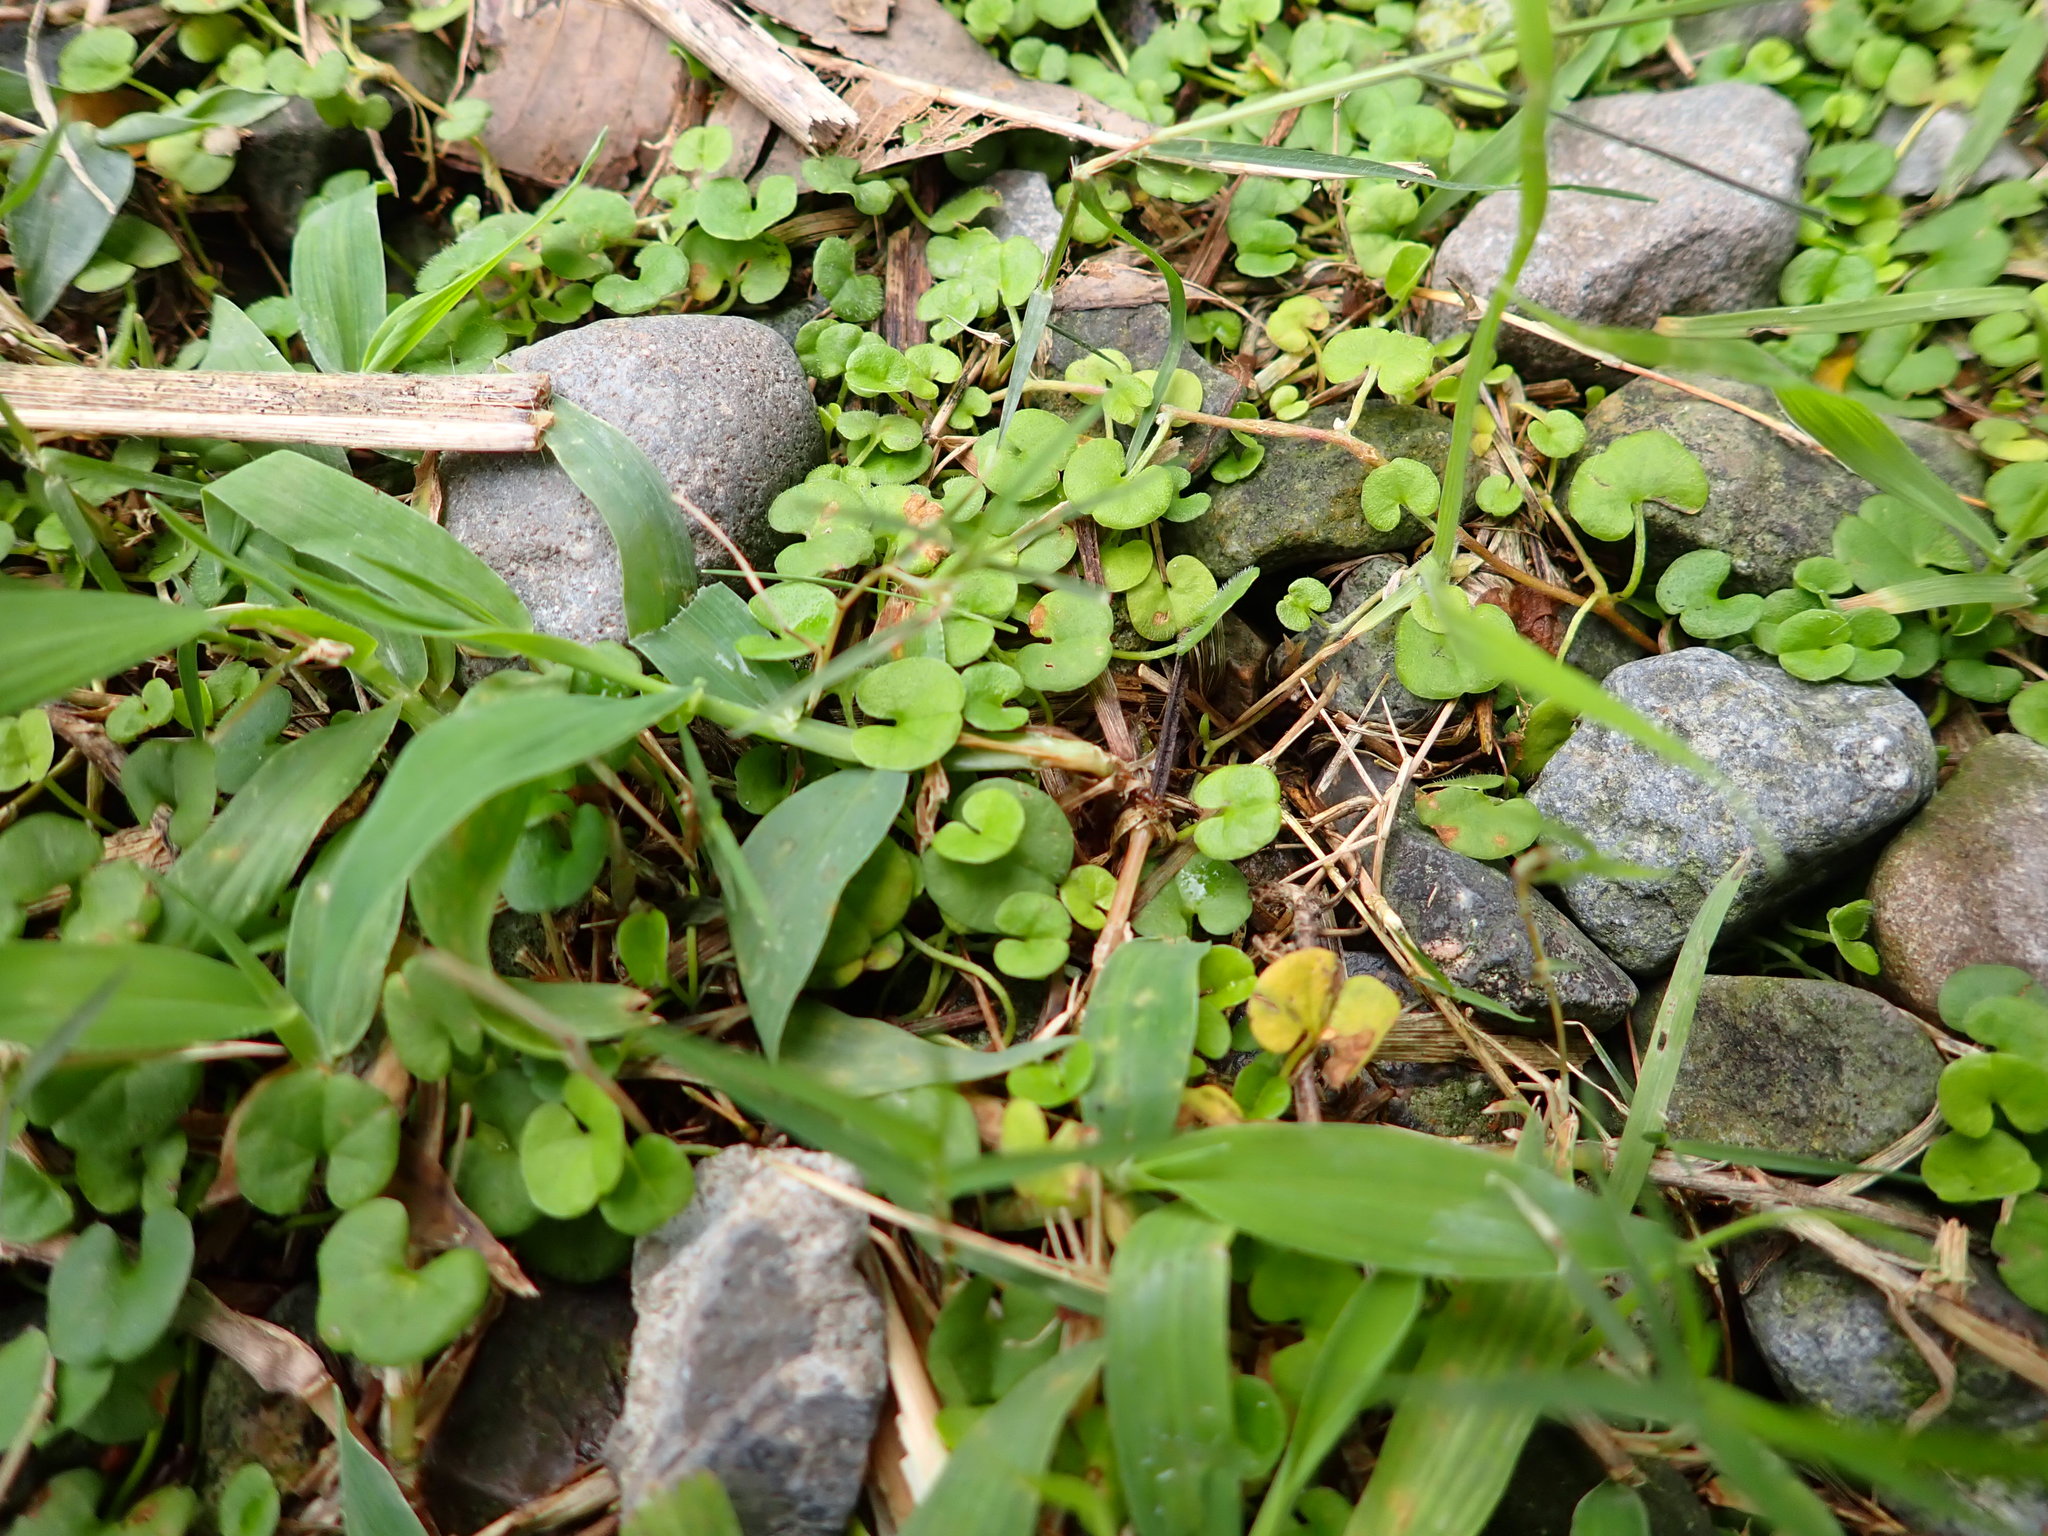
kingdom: Plantae
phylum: Tracheophyta
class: Magnoliopsida
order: Solanales
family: Convolvulaceae
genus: Dichondra
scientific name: Dichondra micrantha
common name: Kidneyweed
